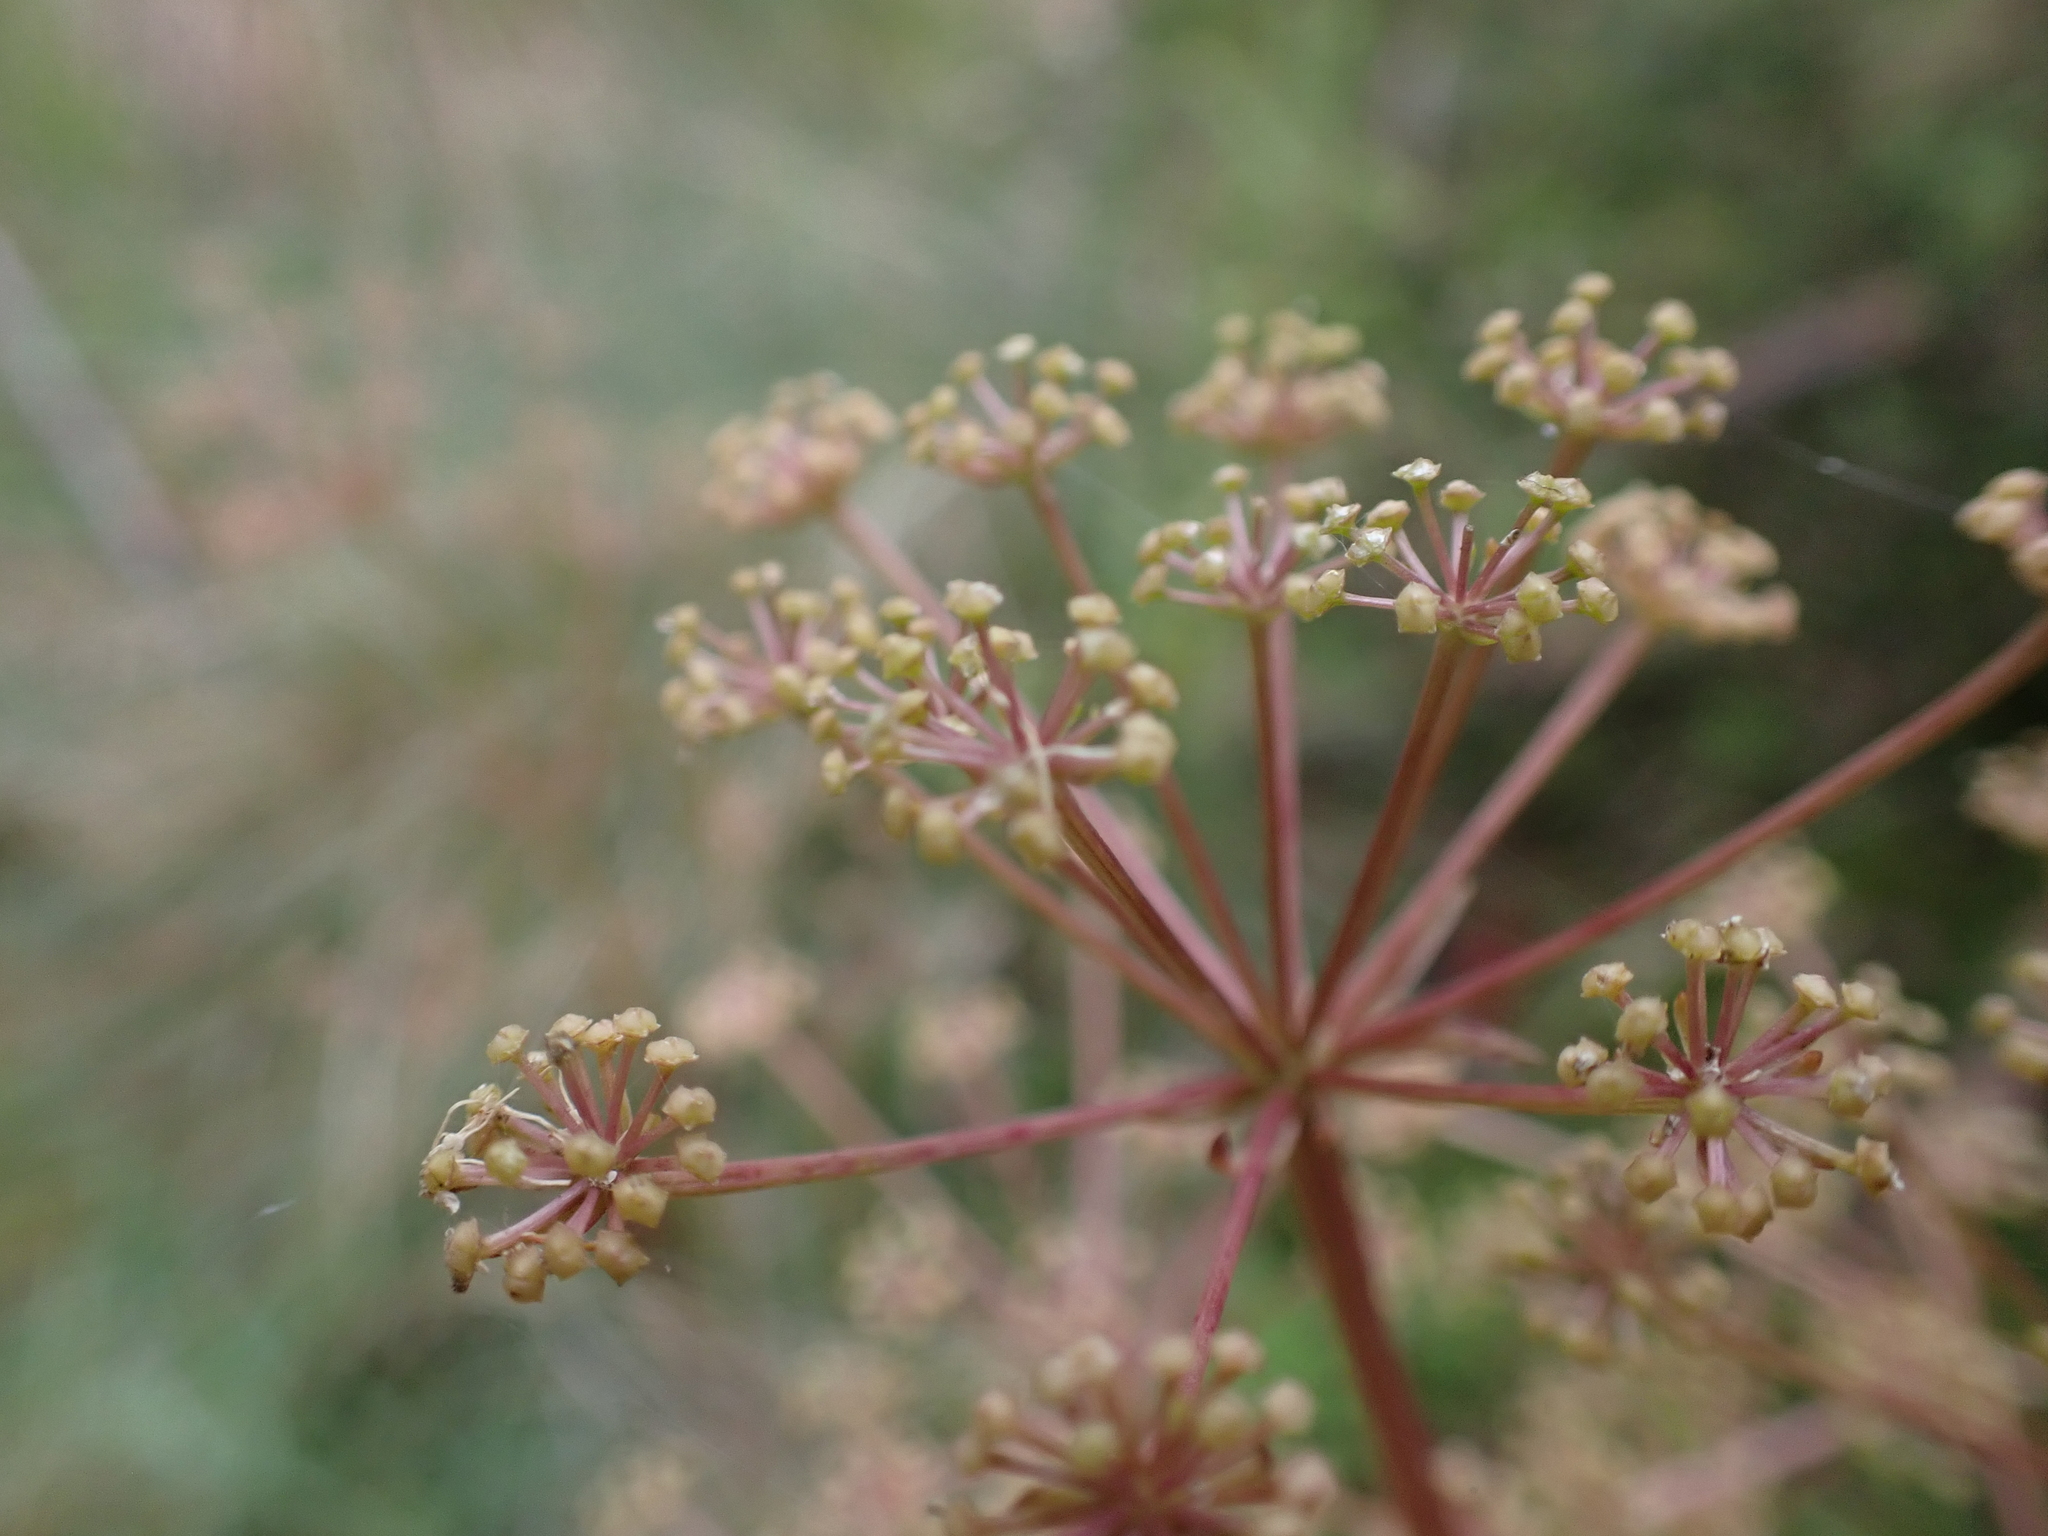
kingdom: Plantae
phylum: Tracheophyta
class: Magnoliopsida
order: Apiales
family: Apiaceae
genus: Aciphylla
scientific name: Aciphylla simplicifolia
